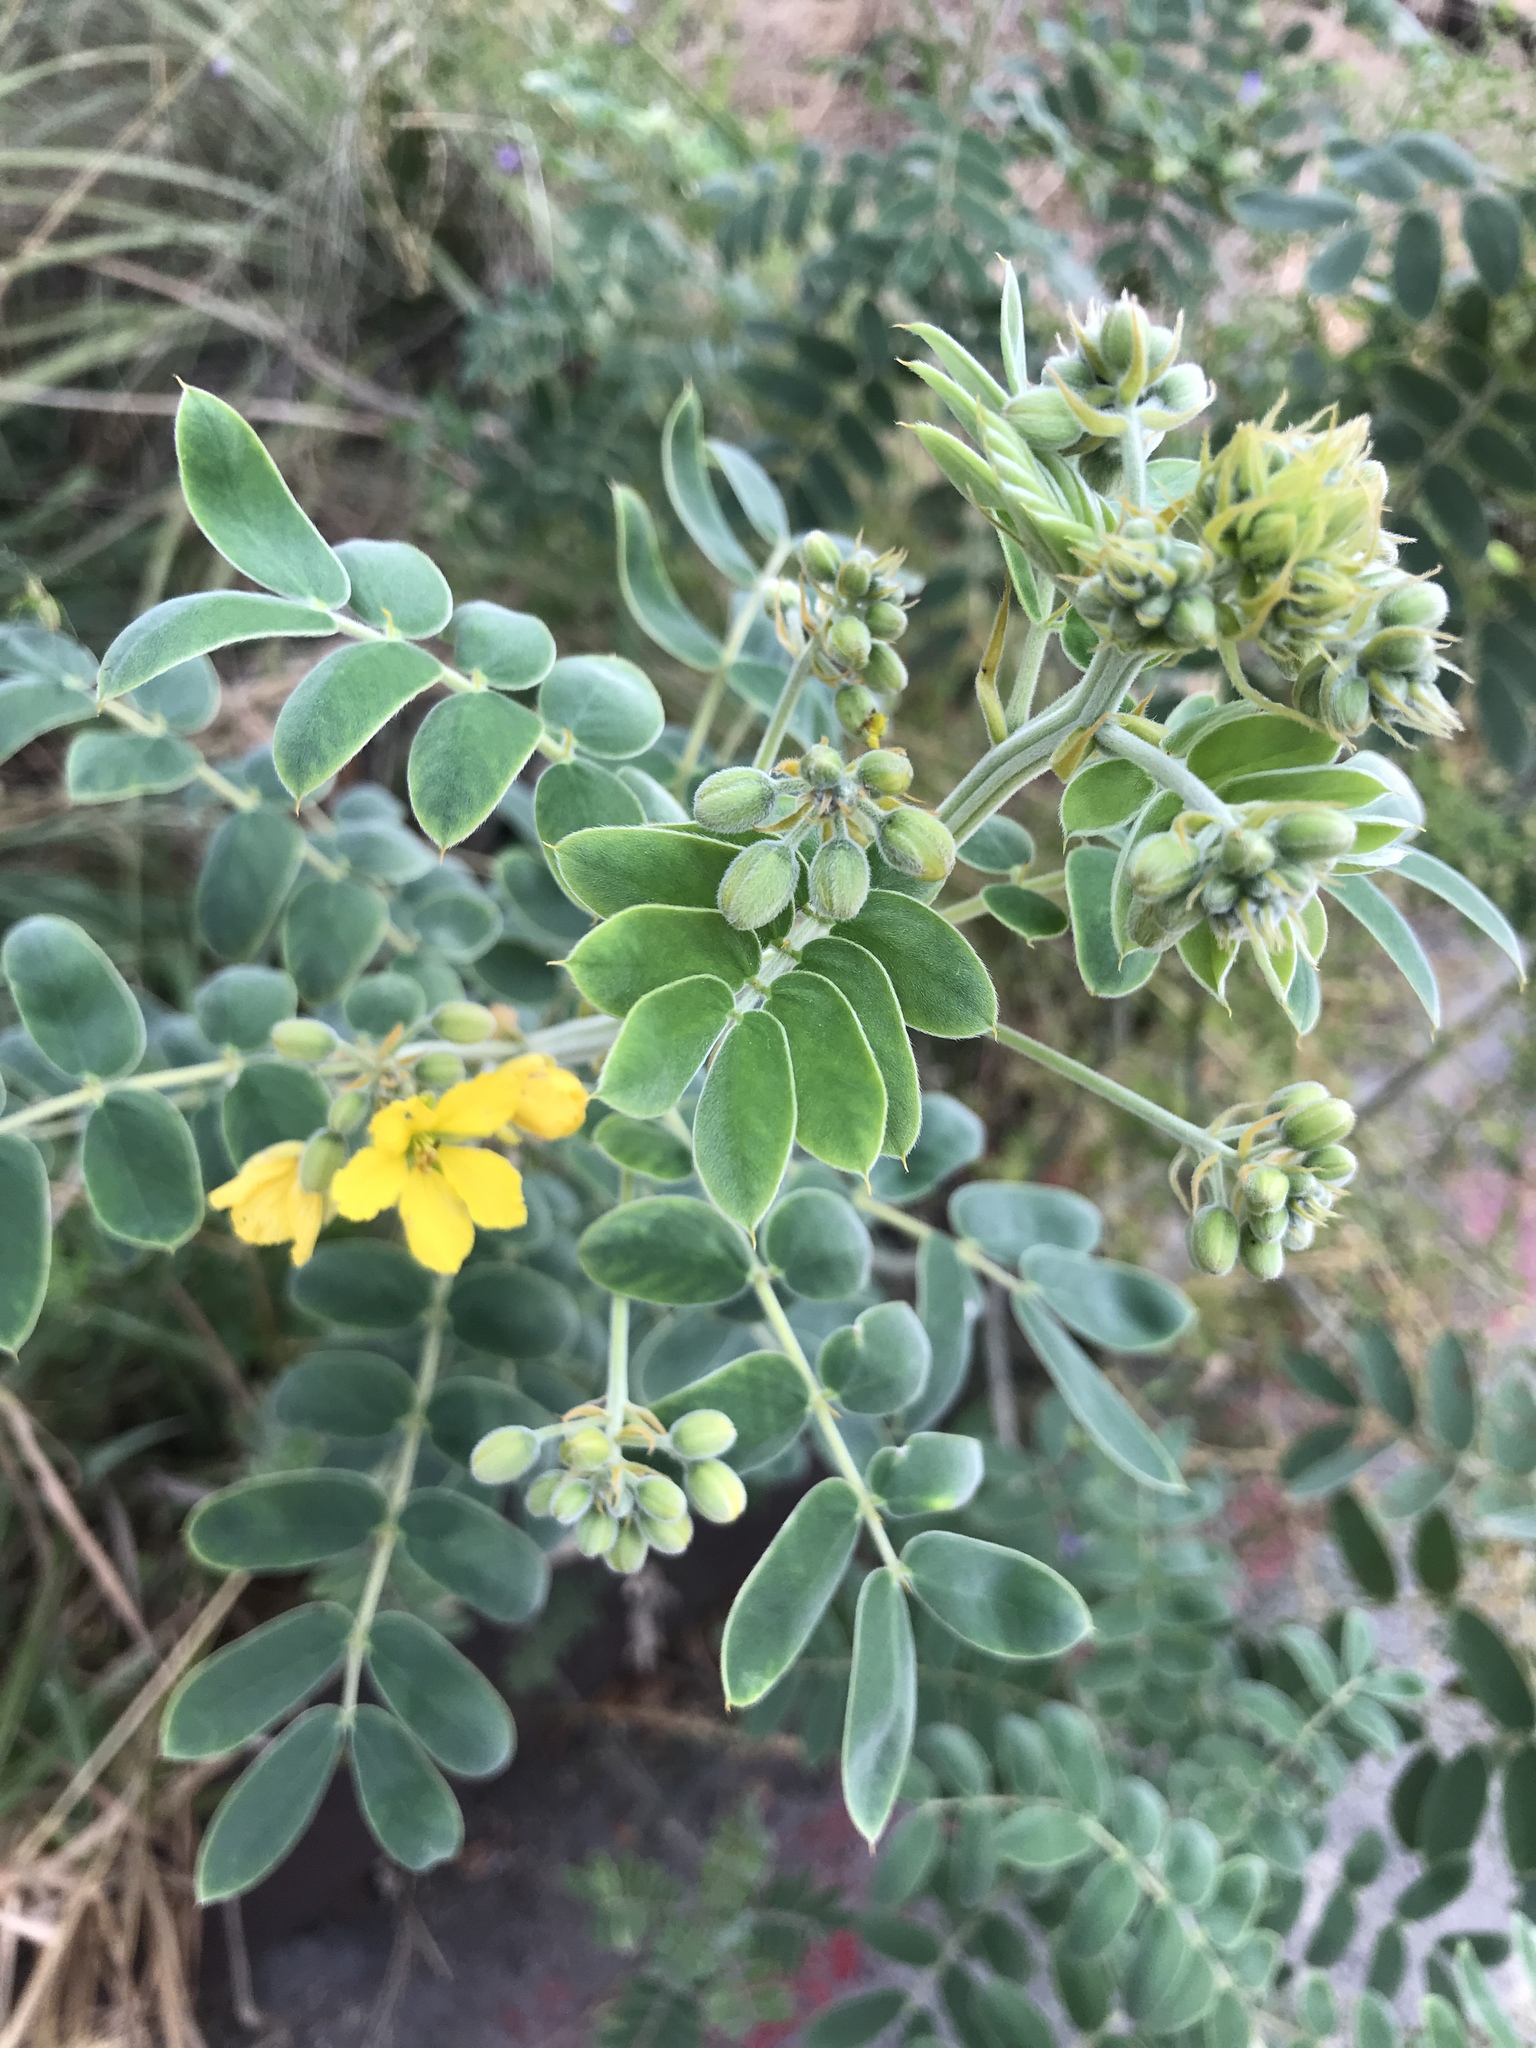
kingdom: Plantae
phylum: Tracheophyta
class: Magnoliopsida
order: Fabales
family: Fabaceae
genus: Senna
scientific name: Senna lindheimeriana
